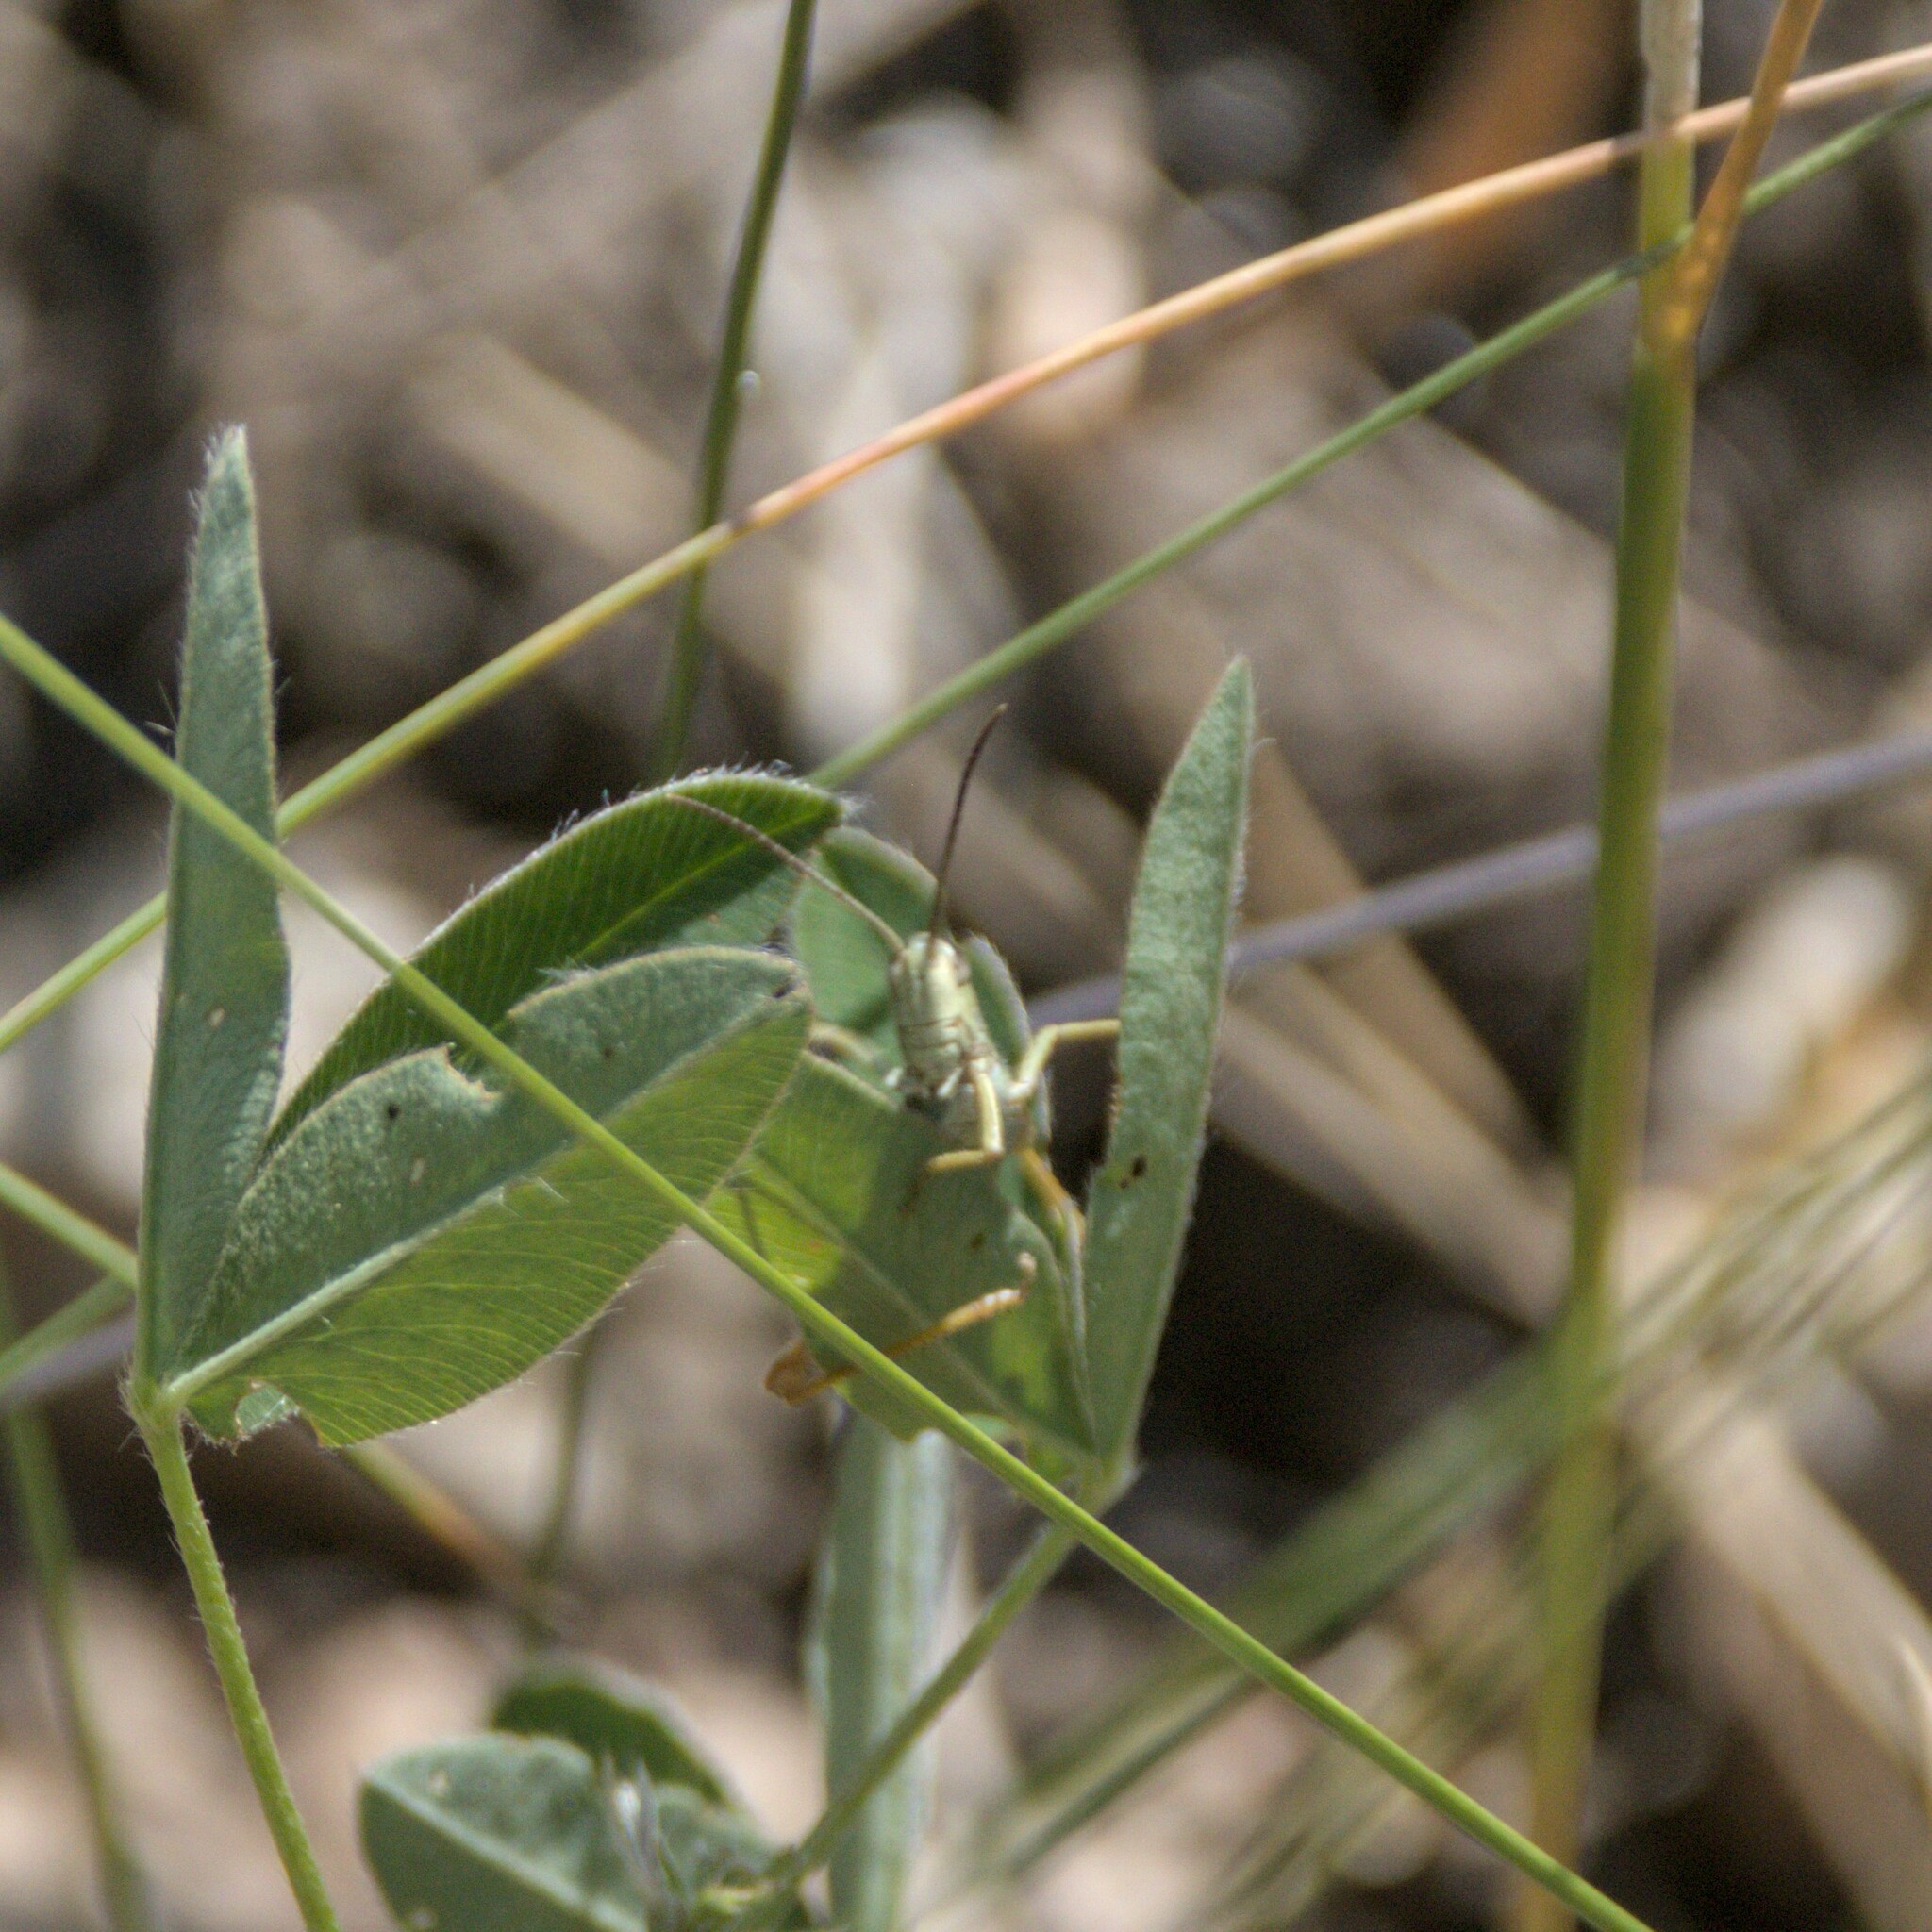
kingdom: Animalia
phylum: Arthropoda
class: Insecta
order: Orthoptera
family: Acrididae
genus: Chorthippus
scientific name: Chorthippus apricarius
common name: Upland field grasshopper
